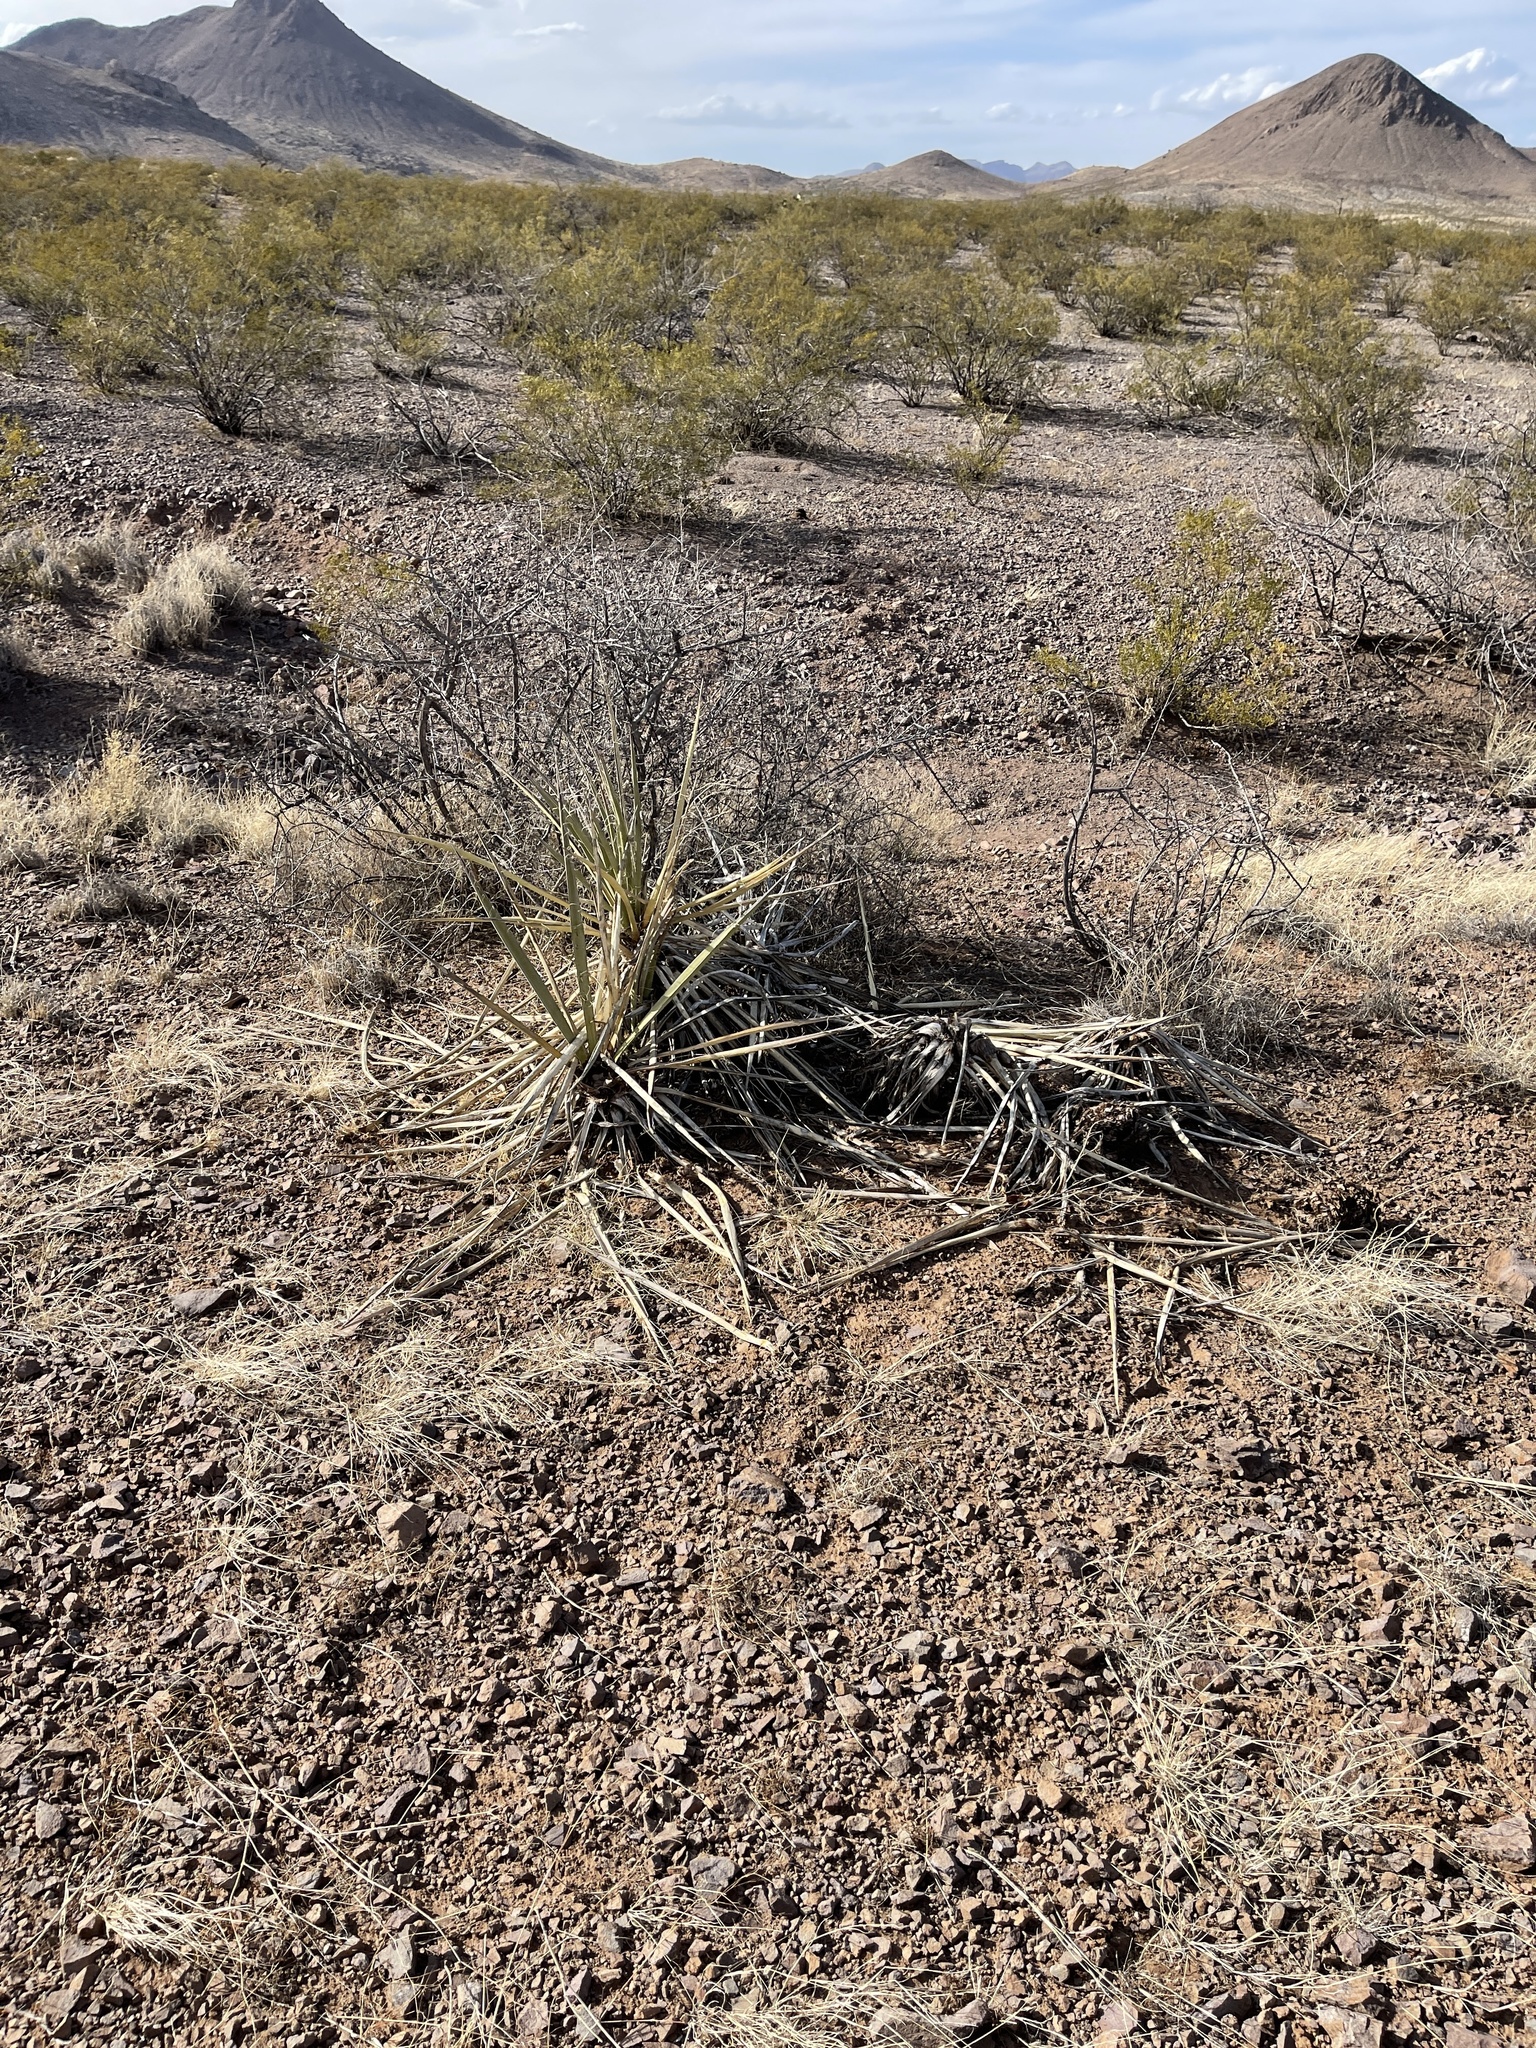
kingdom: Plantae
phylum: Tracheophyta
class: Liliopsida
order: Asparagales
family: Asparagaceae
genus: Yucca
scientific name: Yucca baccata
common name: Banana yucca
